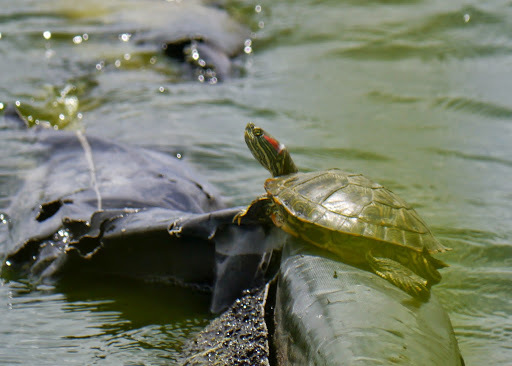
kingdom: Animalia
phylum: Chordata
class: Testudines
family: Emydidae
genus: Trachemys
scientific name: Trachemys scripta
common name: Slider
